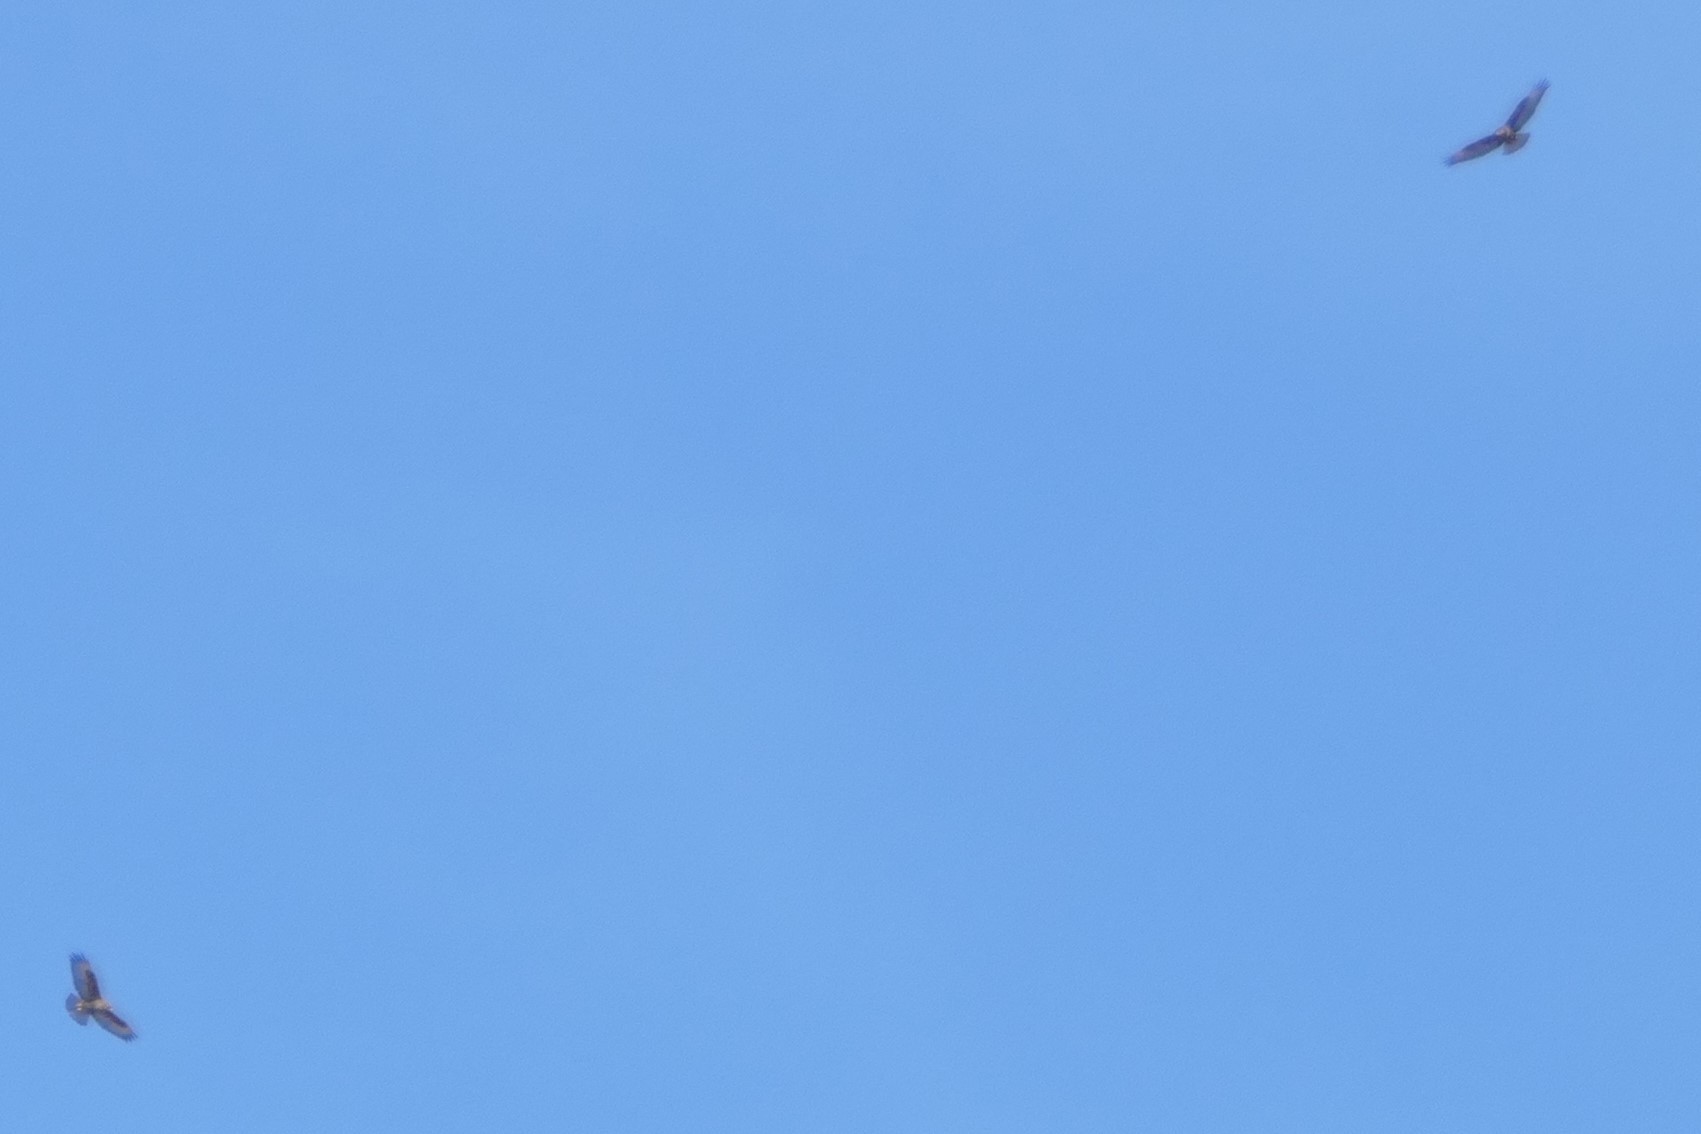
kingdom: Animalia
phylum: Chordata
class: Aves
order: Accipitriformes
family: Accipitridae
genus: Buteo
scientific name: Buteo buteo
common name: Common buzzard
